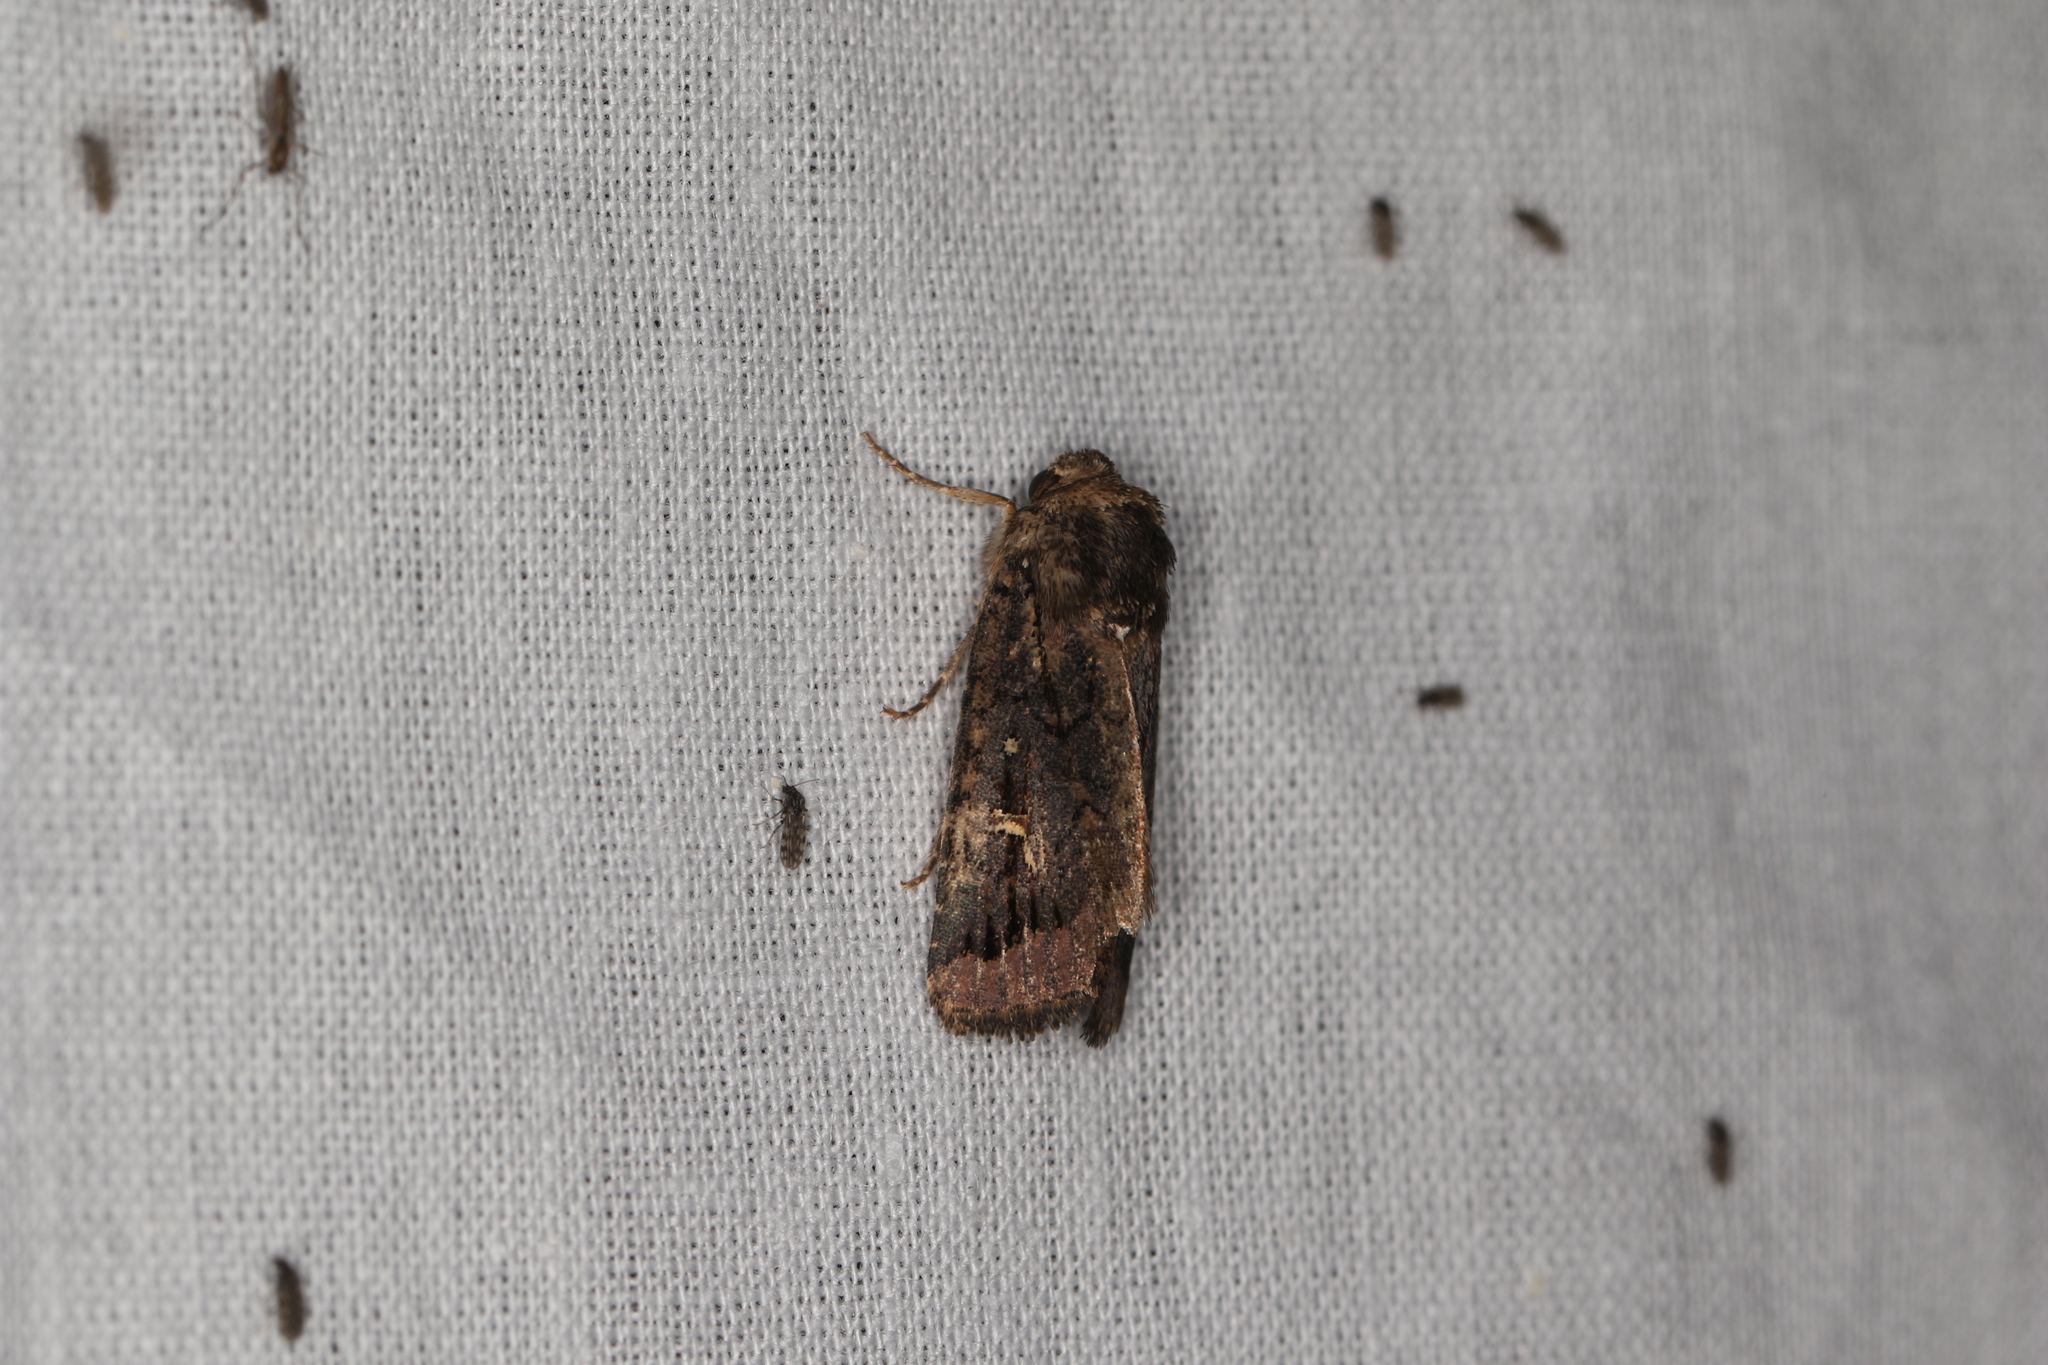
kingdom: Animalia
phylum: Arthropoda
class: Insecta
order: Lepidoptera
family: Noctuidae
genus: Proteuxoa
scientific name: Proteuxoa epiplecta
